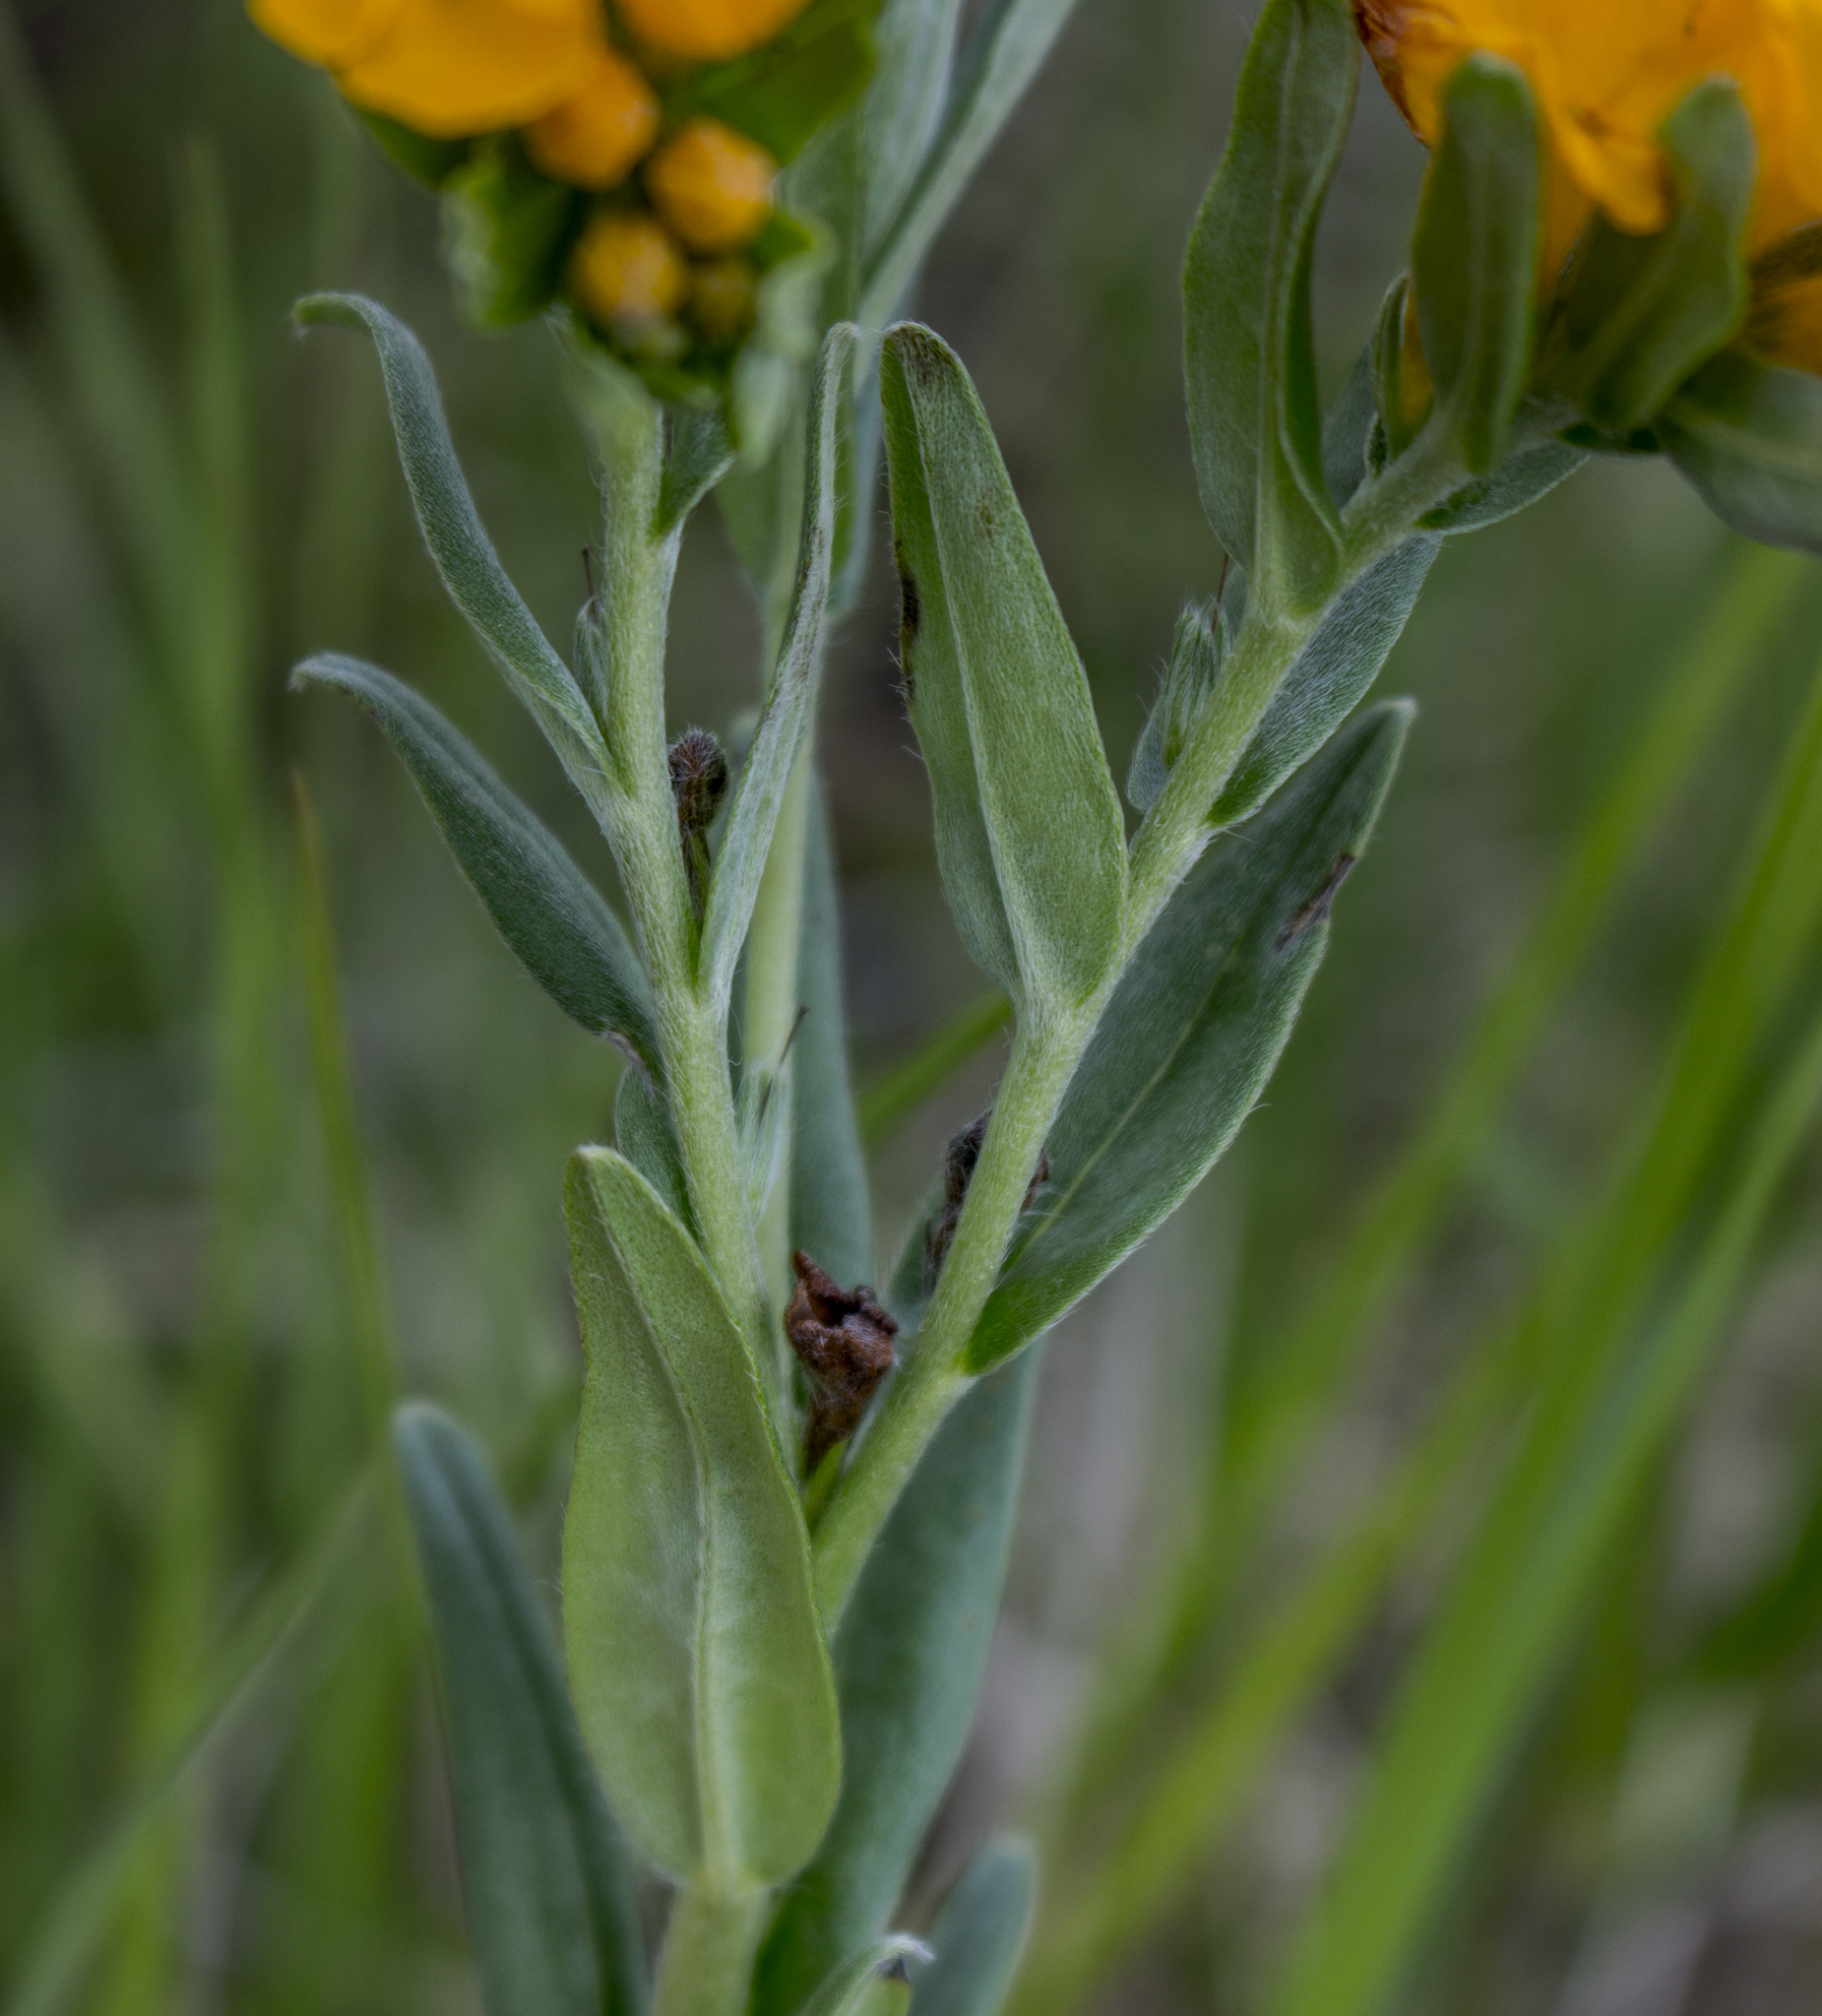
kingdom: Plantae
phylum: Tracheophyta
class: Magnoliopsida
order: Boraginales
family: Boraginaceae
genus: Lithospermum
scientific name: Lithospermum canescens
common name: Hoary puccoon
